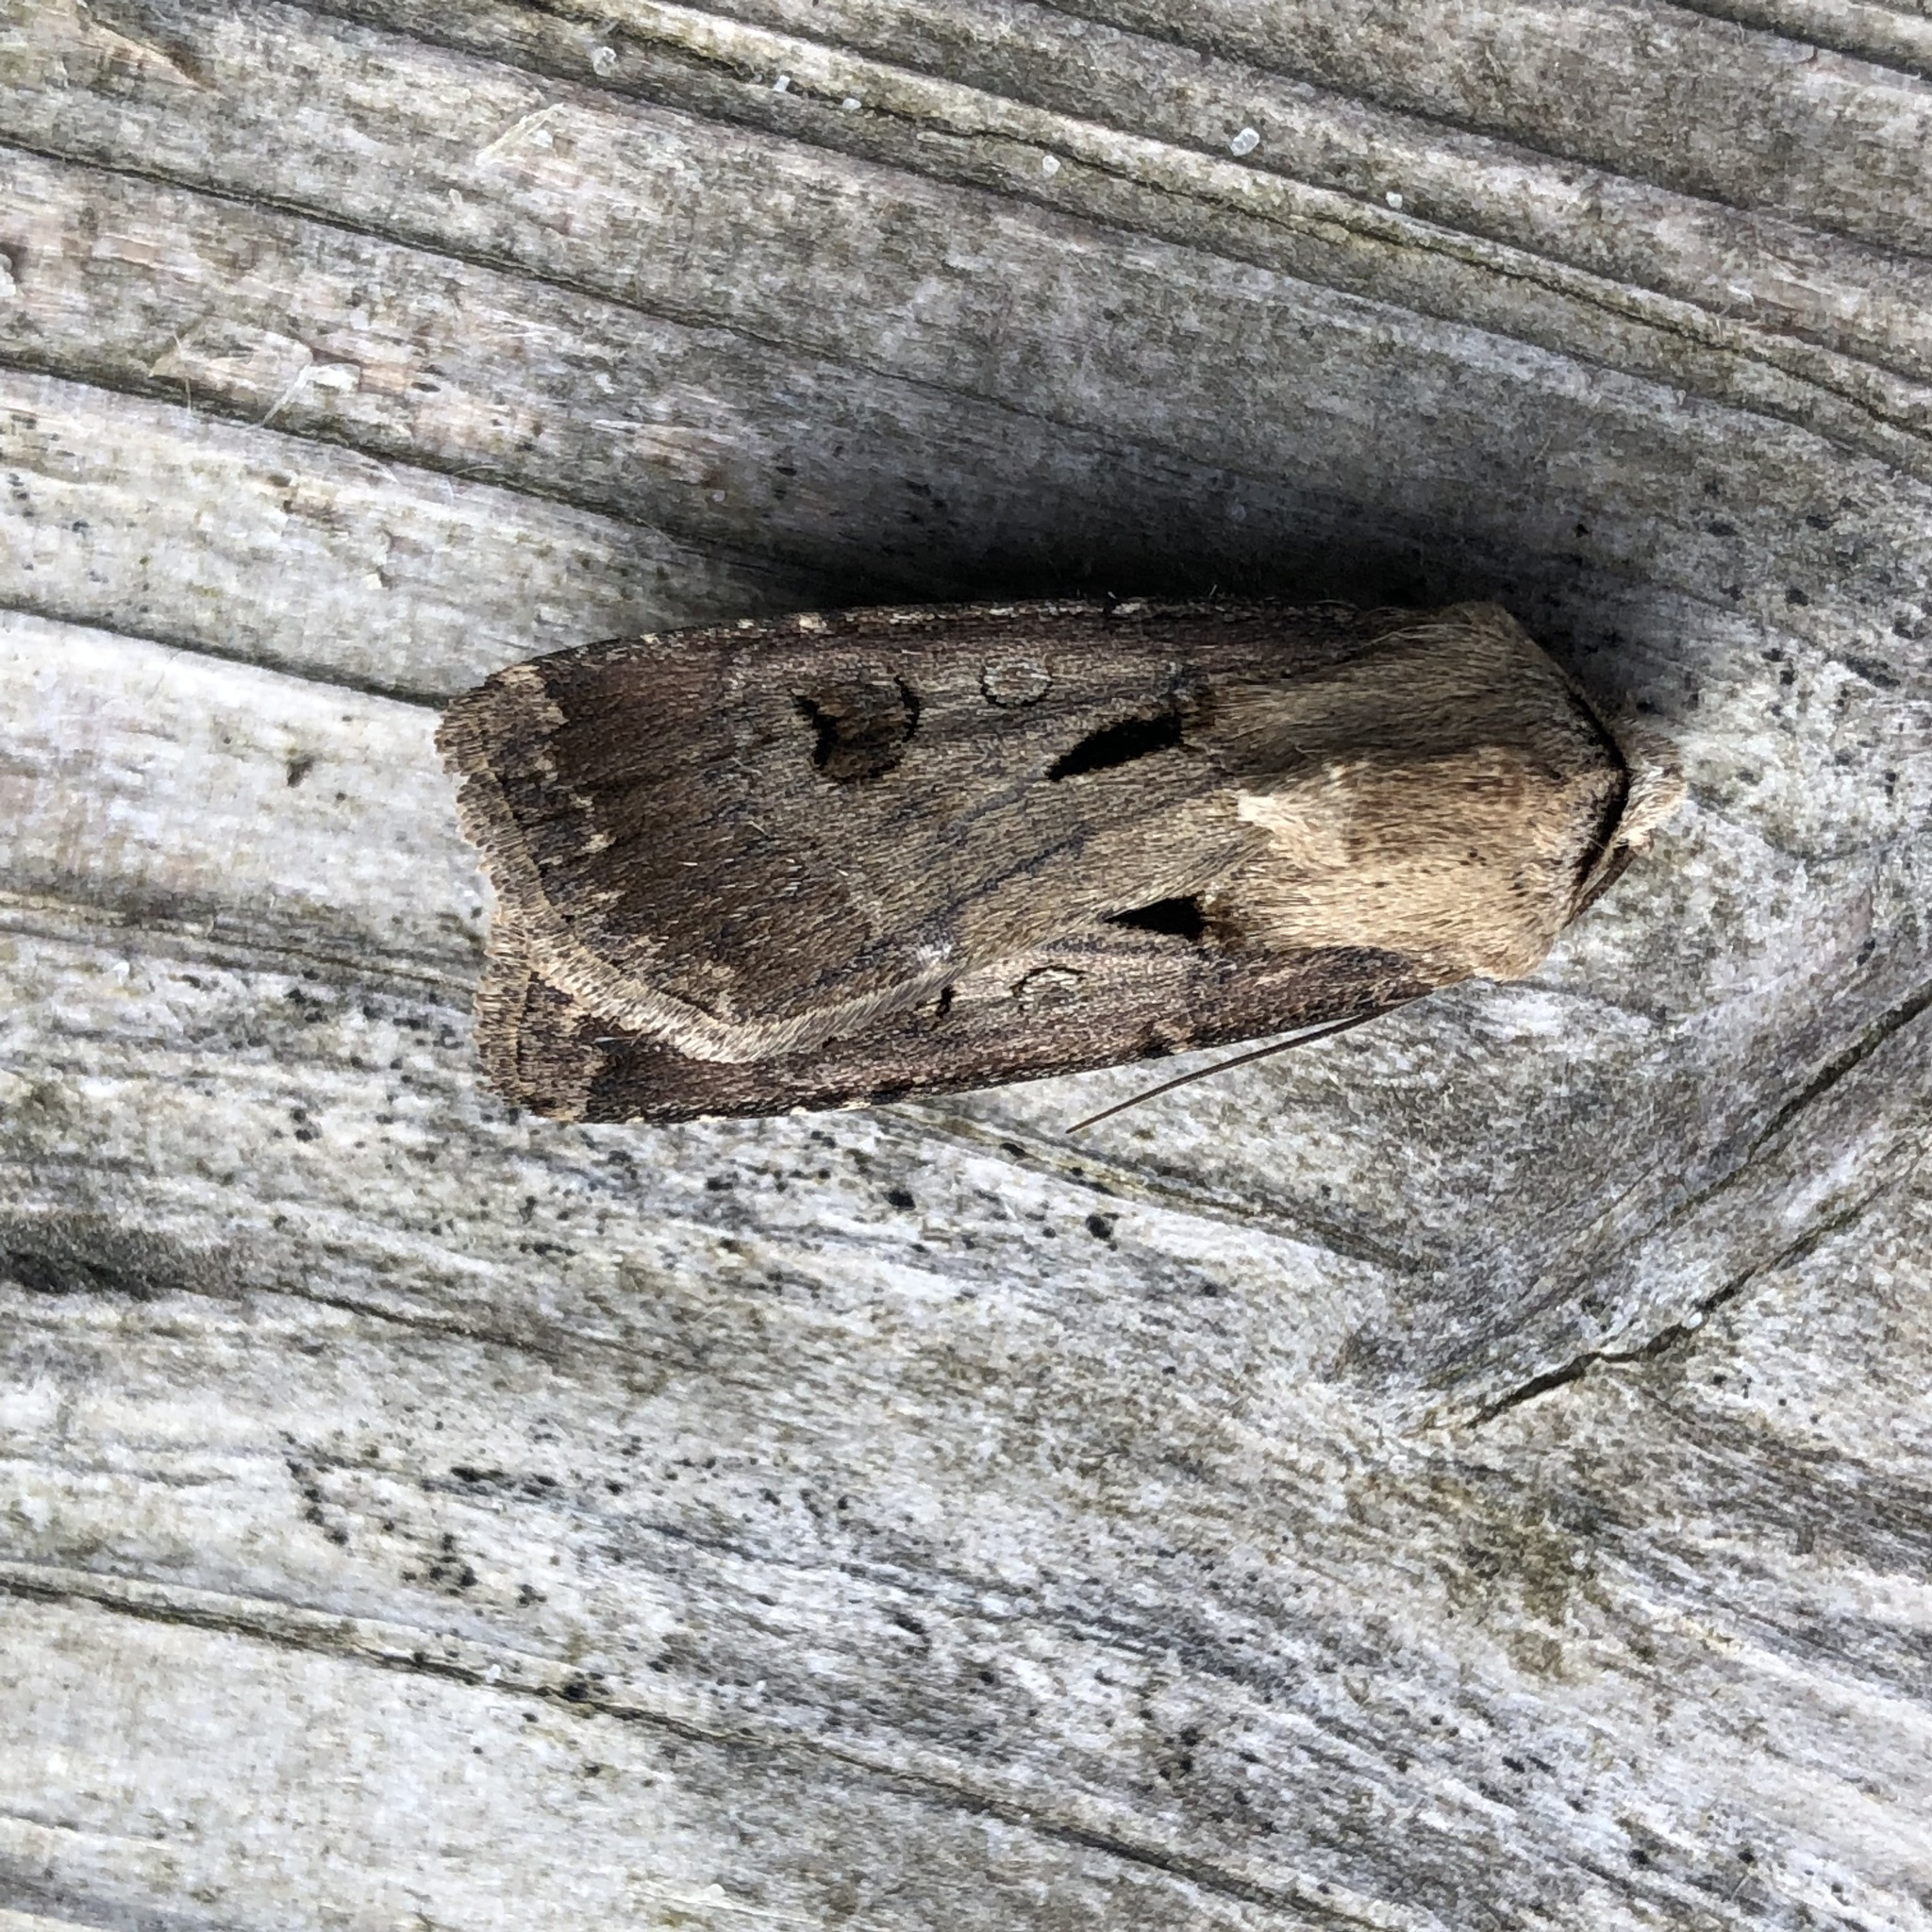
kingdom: Animalia
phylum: Arthropoda
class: Insecta
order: Lepidoptera
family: Noctuidae
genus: Agrotis
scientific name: Agrotis exclamationis
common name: Heart and dart
